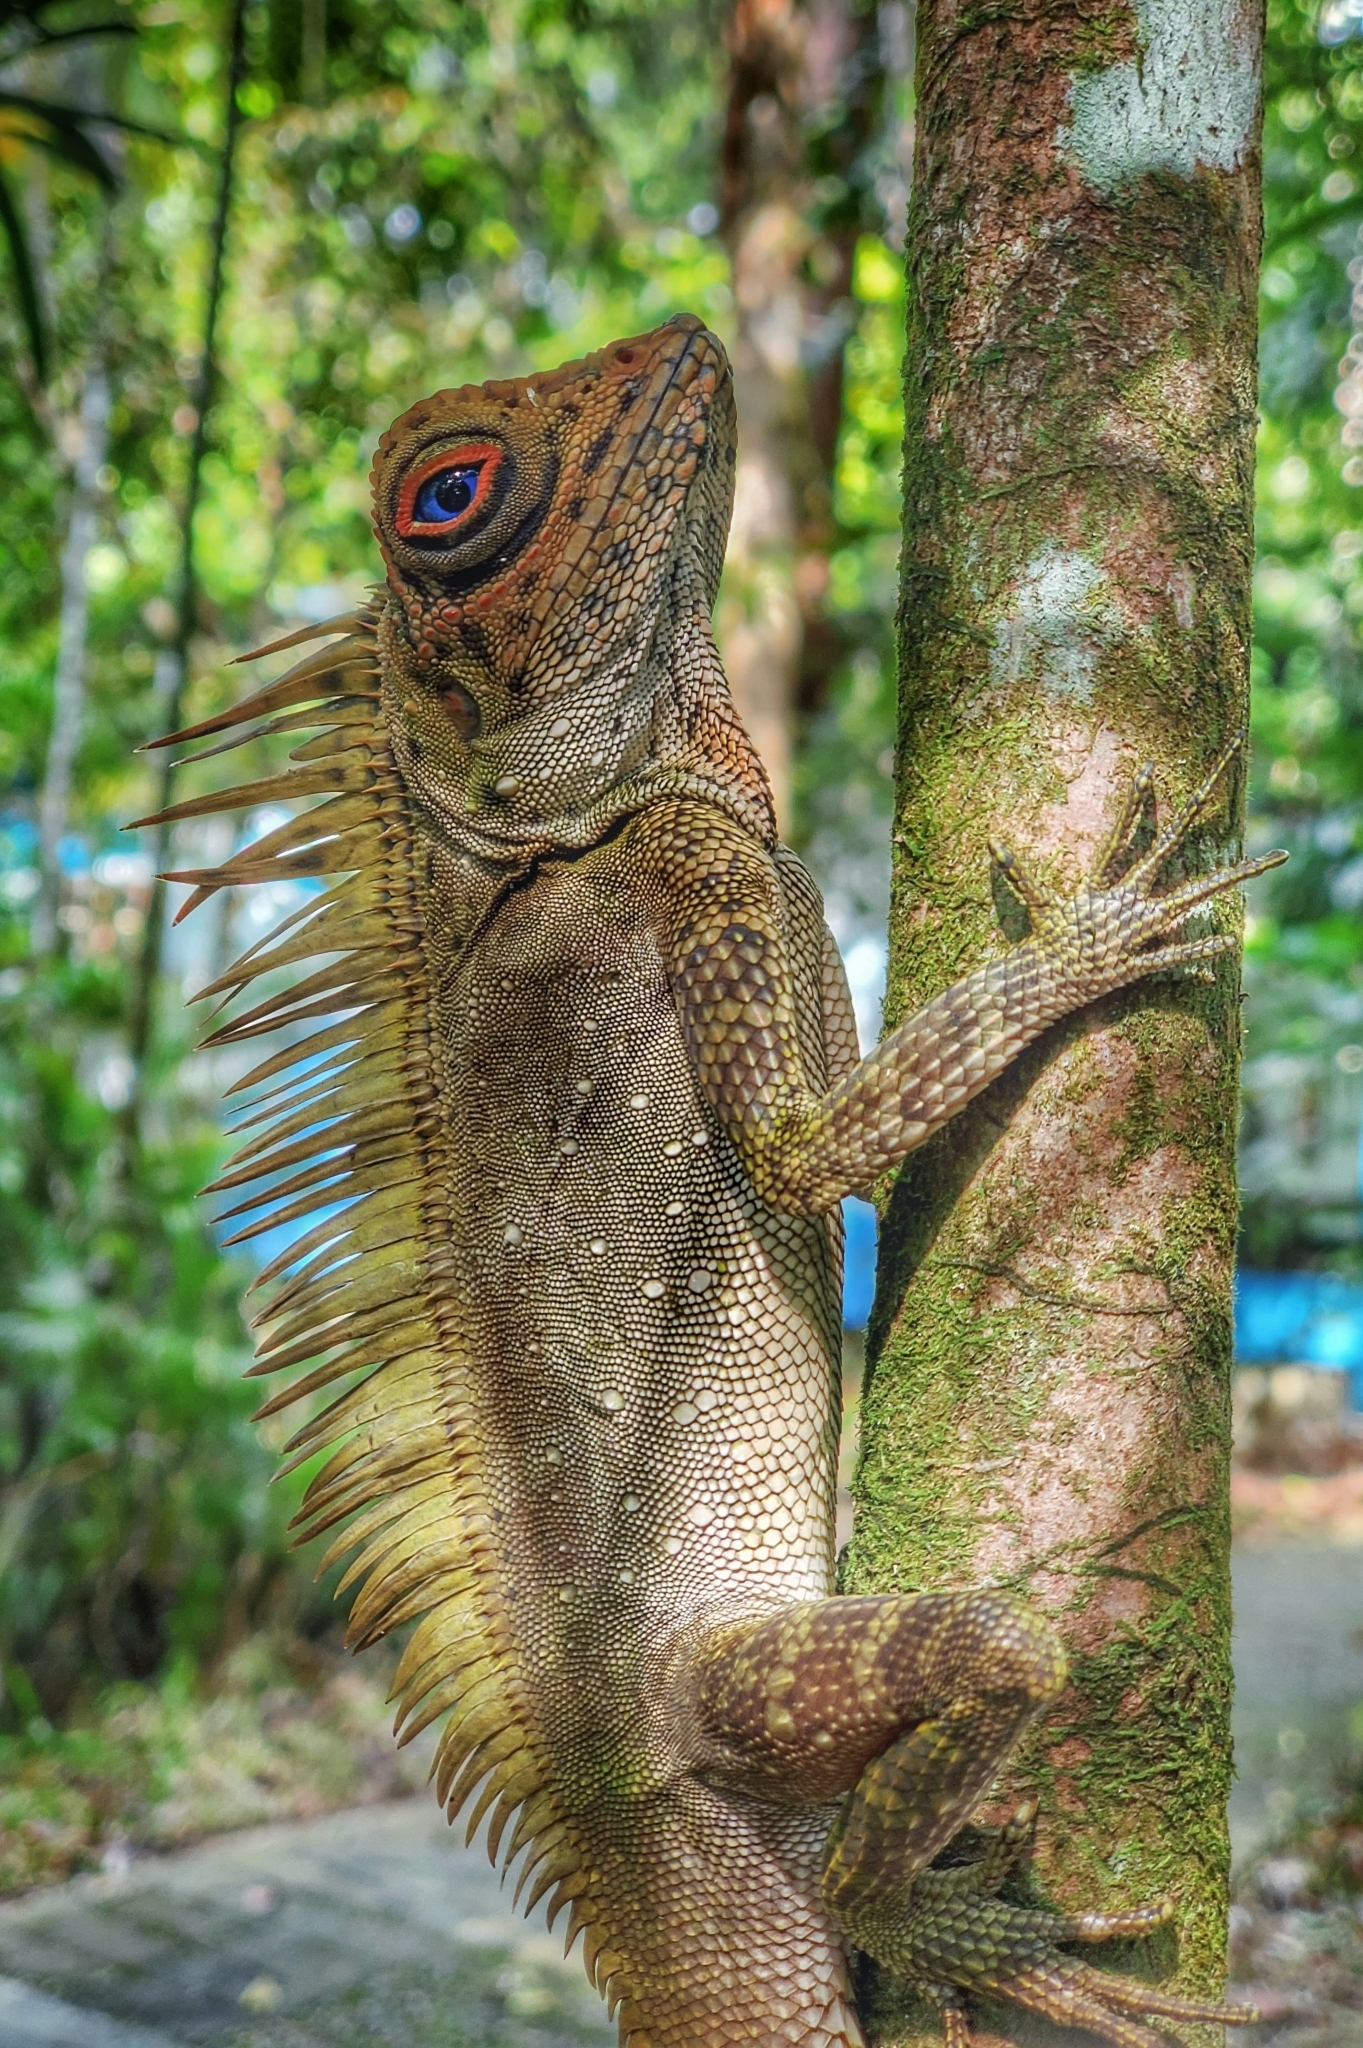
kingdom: Animalia
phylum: Chordata
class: Squamata
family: Agamidae
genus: Gonocephalus
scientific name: Gonocephalus liogaster
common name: Blue-eyed anglehead lizard
